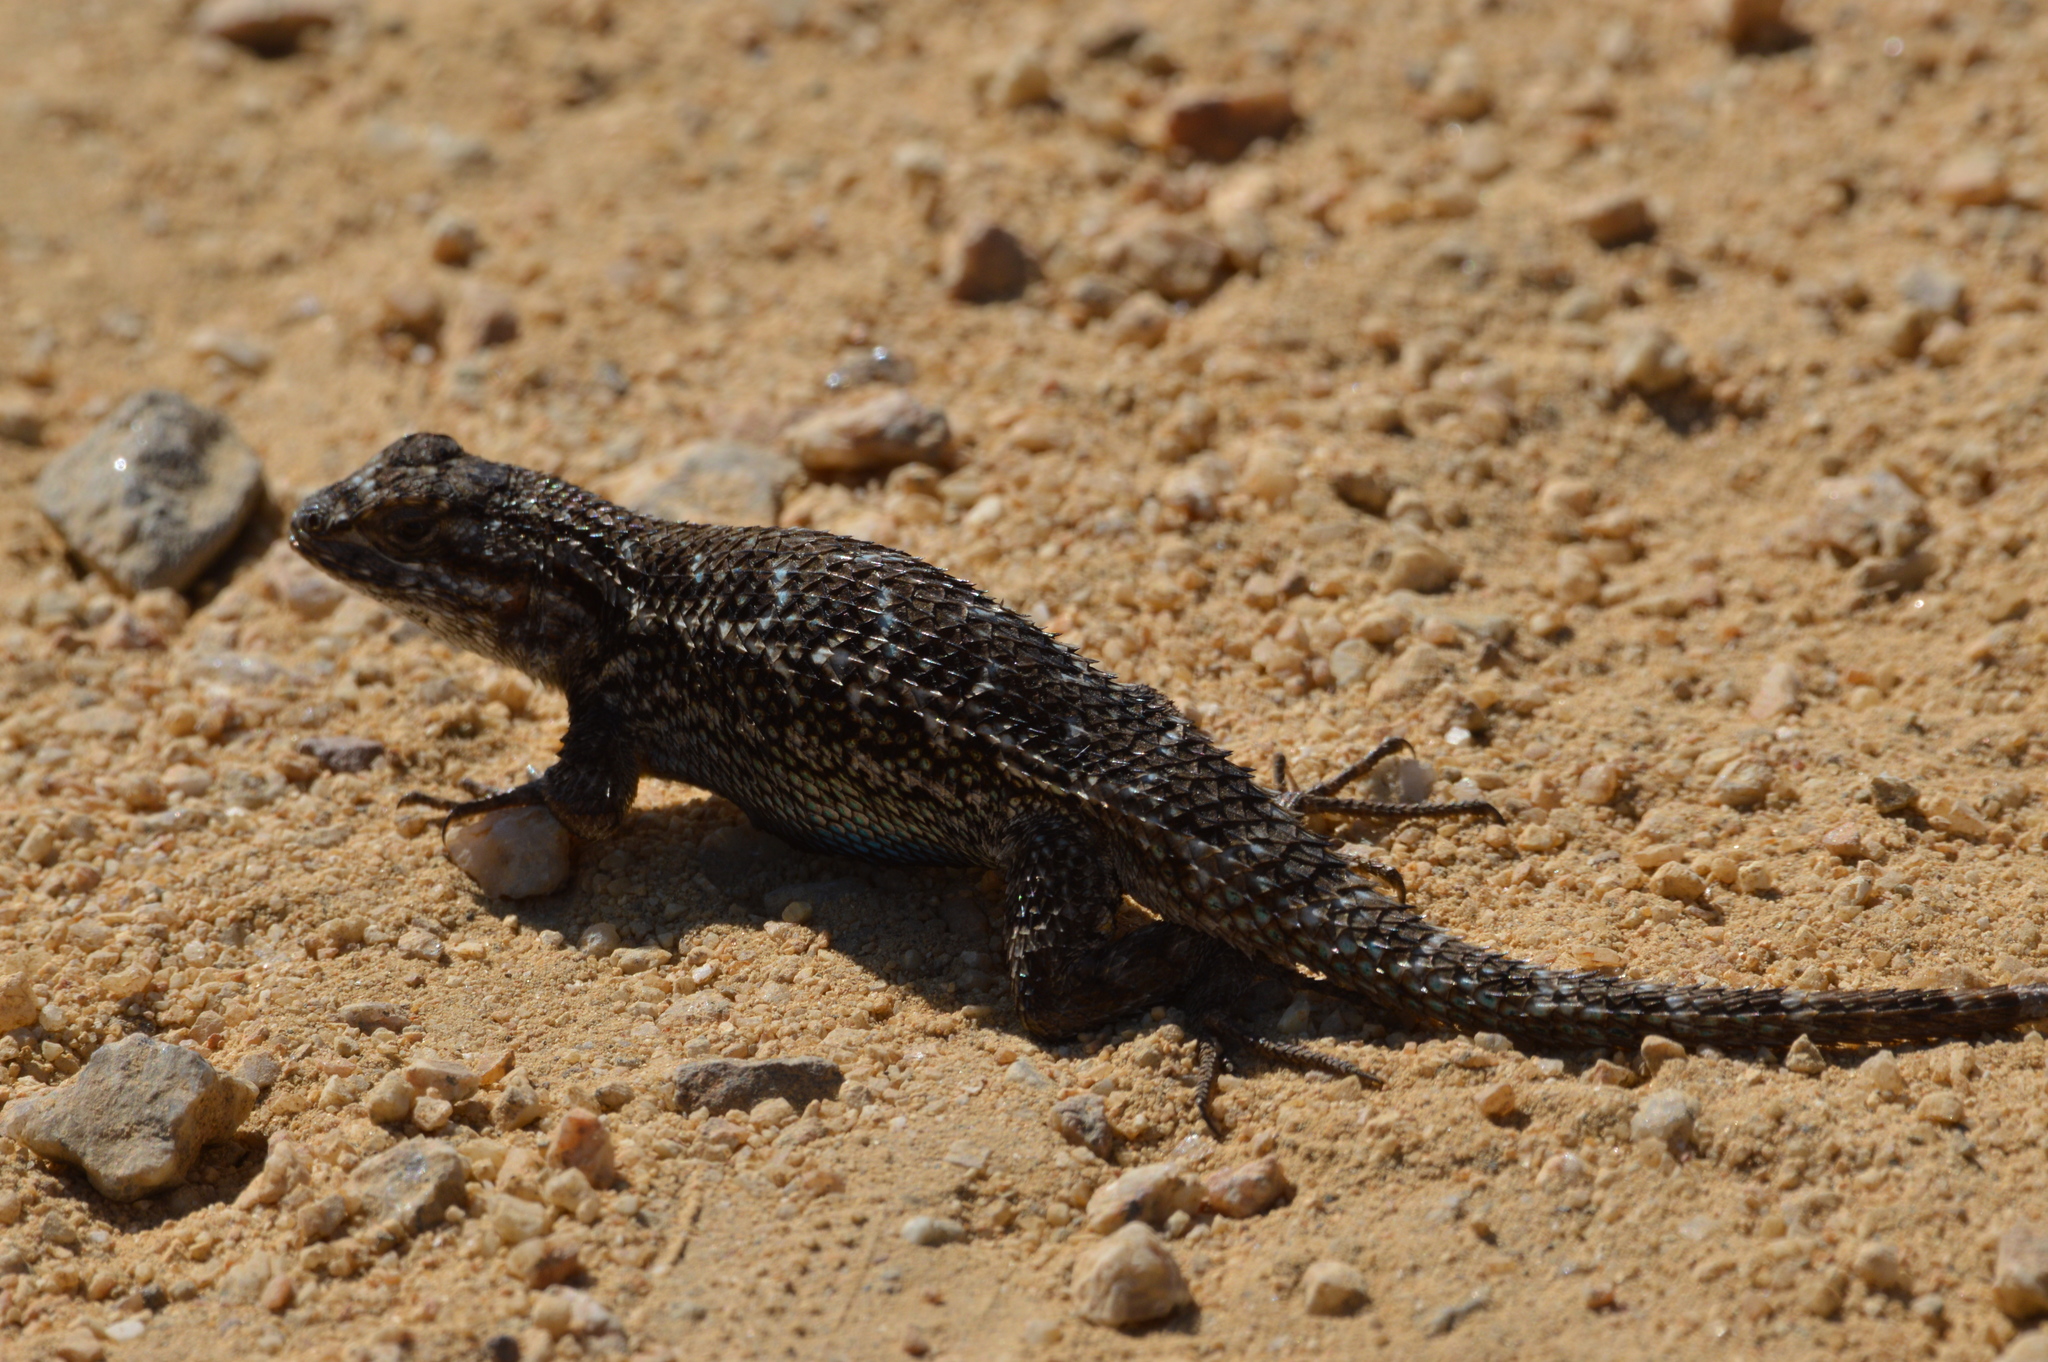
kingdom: Animalia
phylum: Chordata
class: Squamata
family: Phrynosomatidae
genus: Sceloporus
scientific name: Sceloporus occidentalis
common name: Western fence lizard
